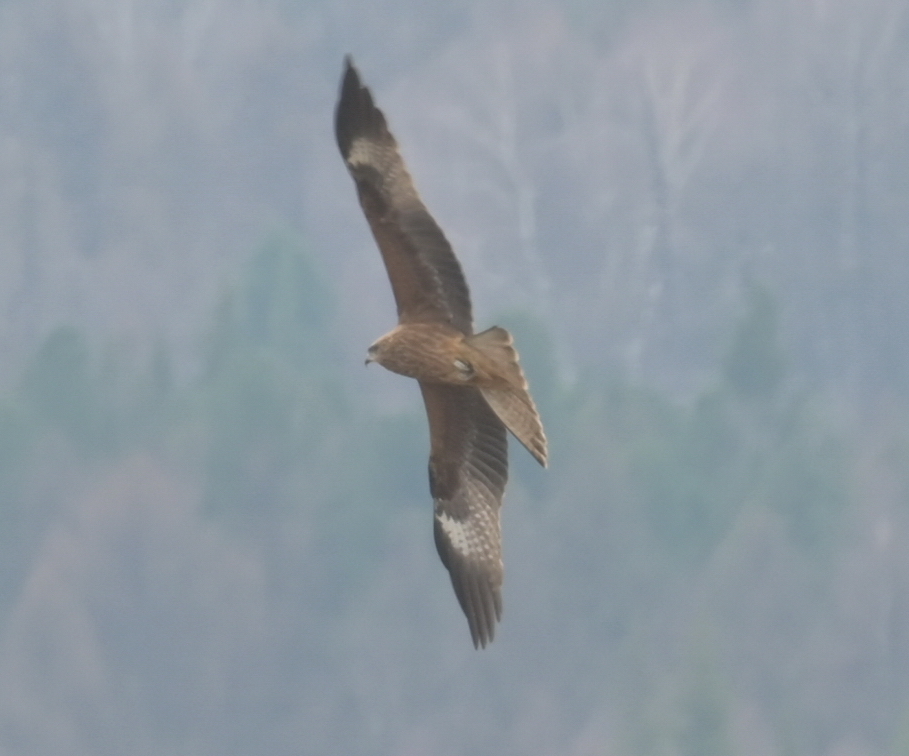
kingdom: Animalia
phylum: Chordata
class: Aves
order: Accipitriformes
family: Accipitridae
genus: Milvus
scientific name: Milvus migrans
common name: Black kite
